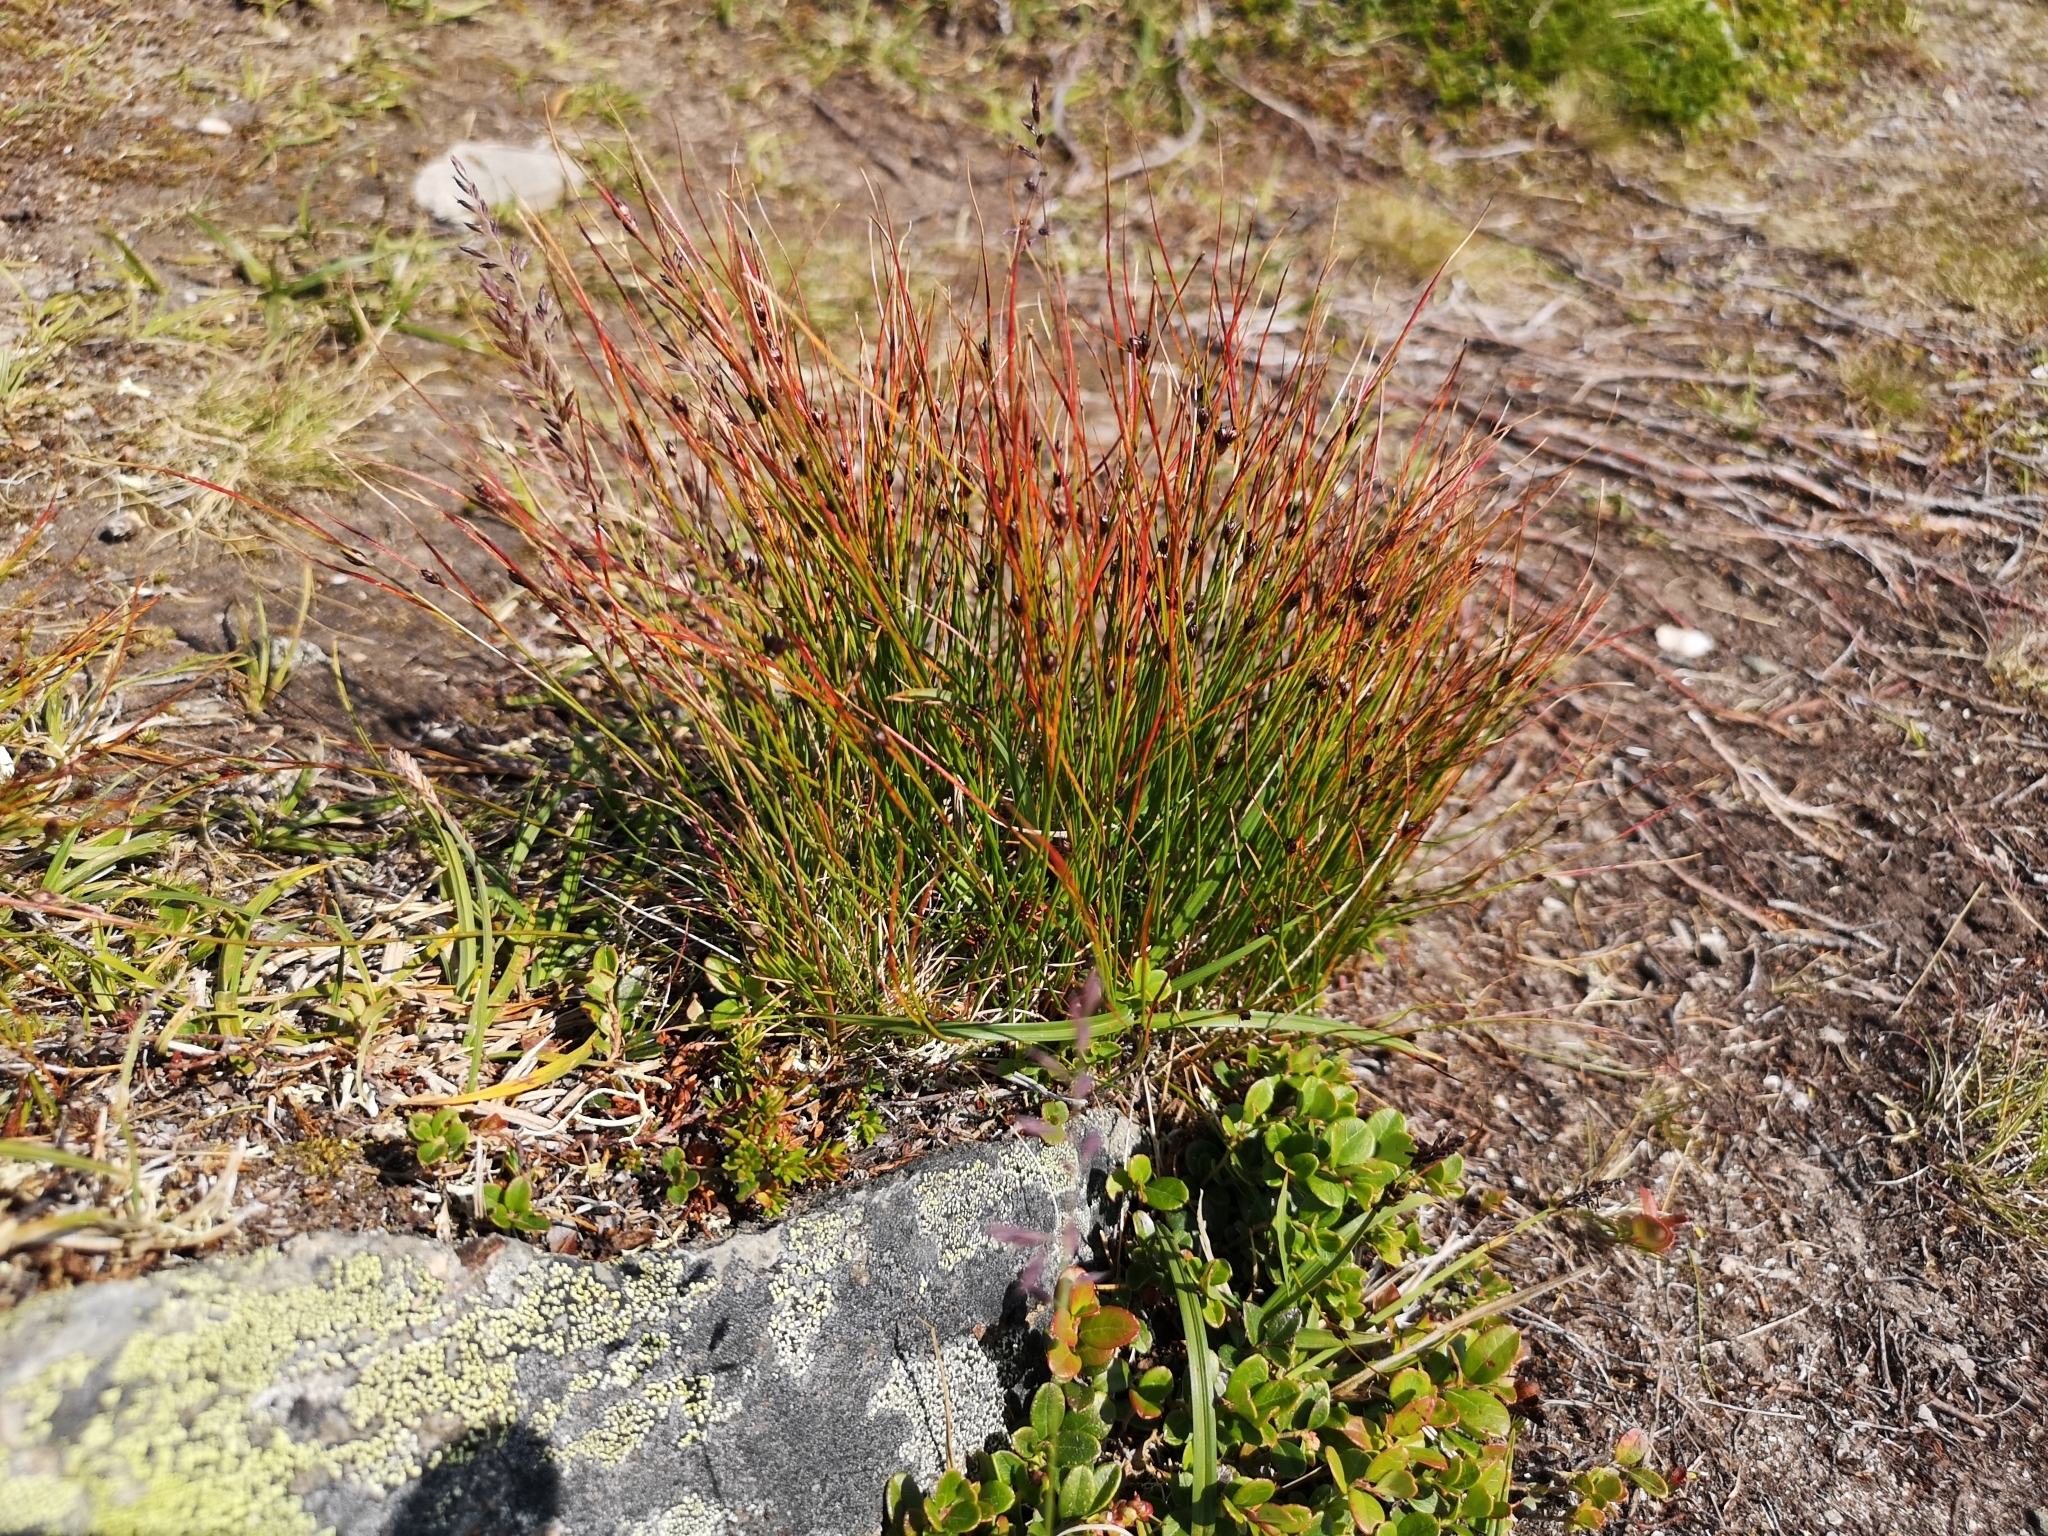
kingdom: Plantae
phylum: Tracheophyta
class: Liliopsida
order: Poales
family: Juncaceae
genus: Oreojuncus
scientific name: Oreojuncus trifidus
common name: Highland rush
